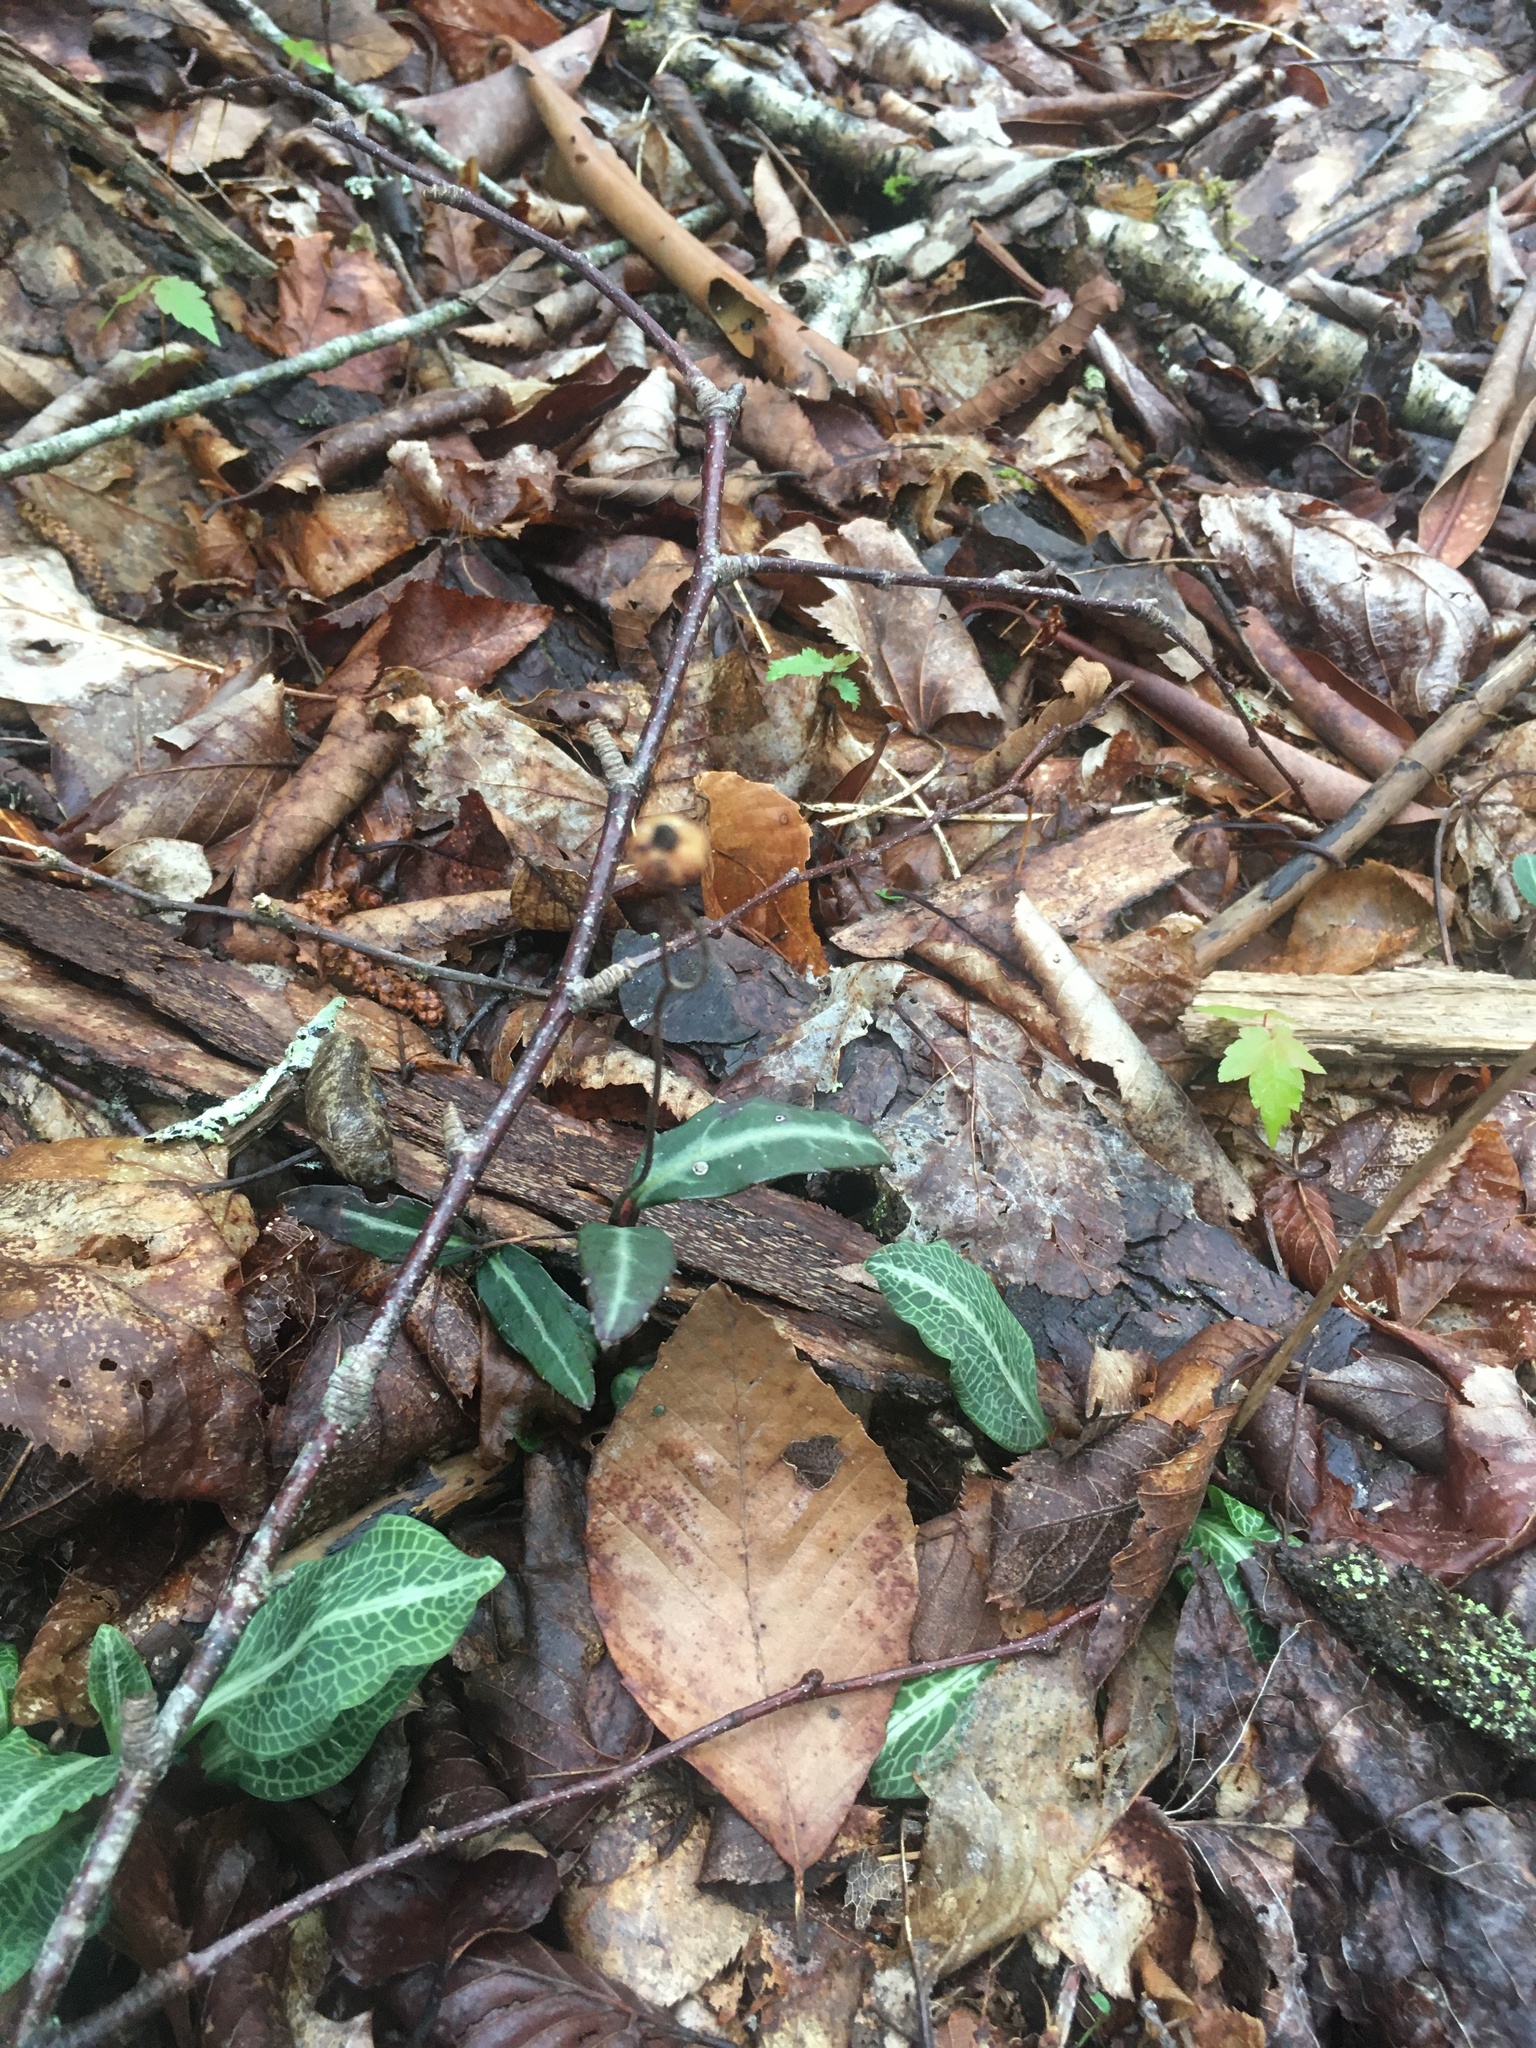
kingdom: Plantae
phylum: Tracheophyta
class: Magnoliopsida
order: Ericales
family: Ericaceae
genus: Chimaphila
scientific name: Chimaphila maculata
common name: Spotted pipsissewa
